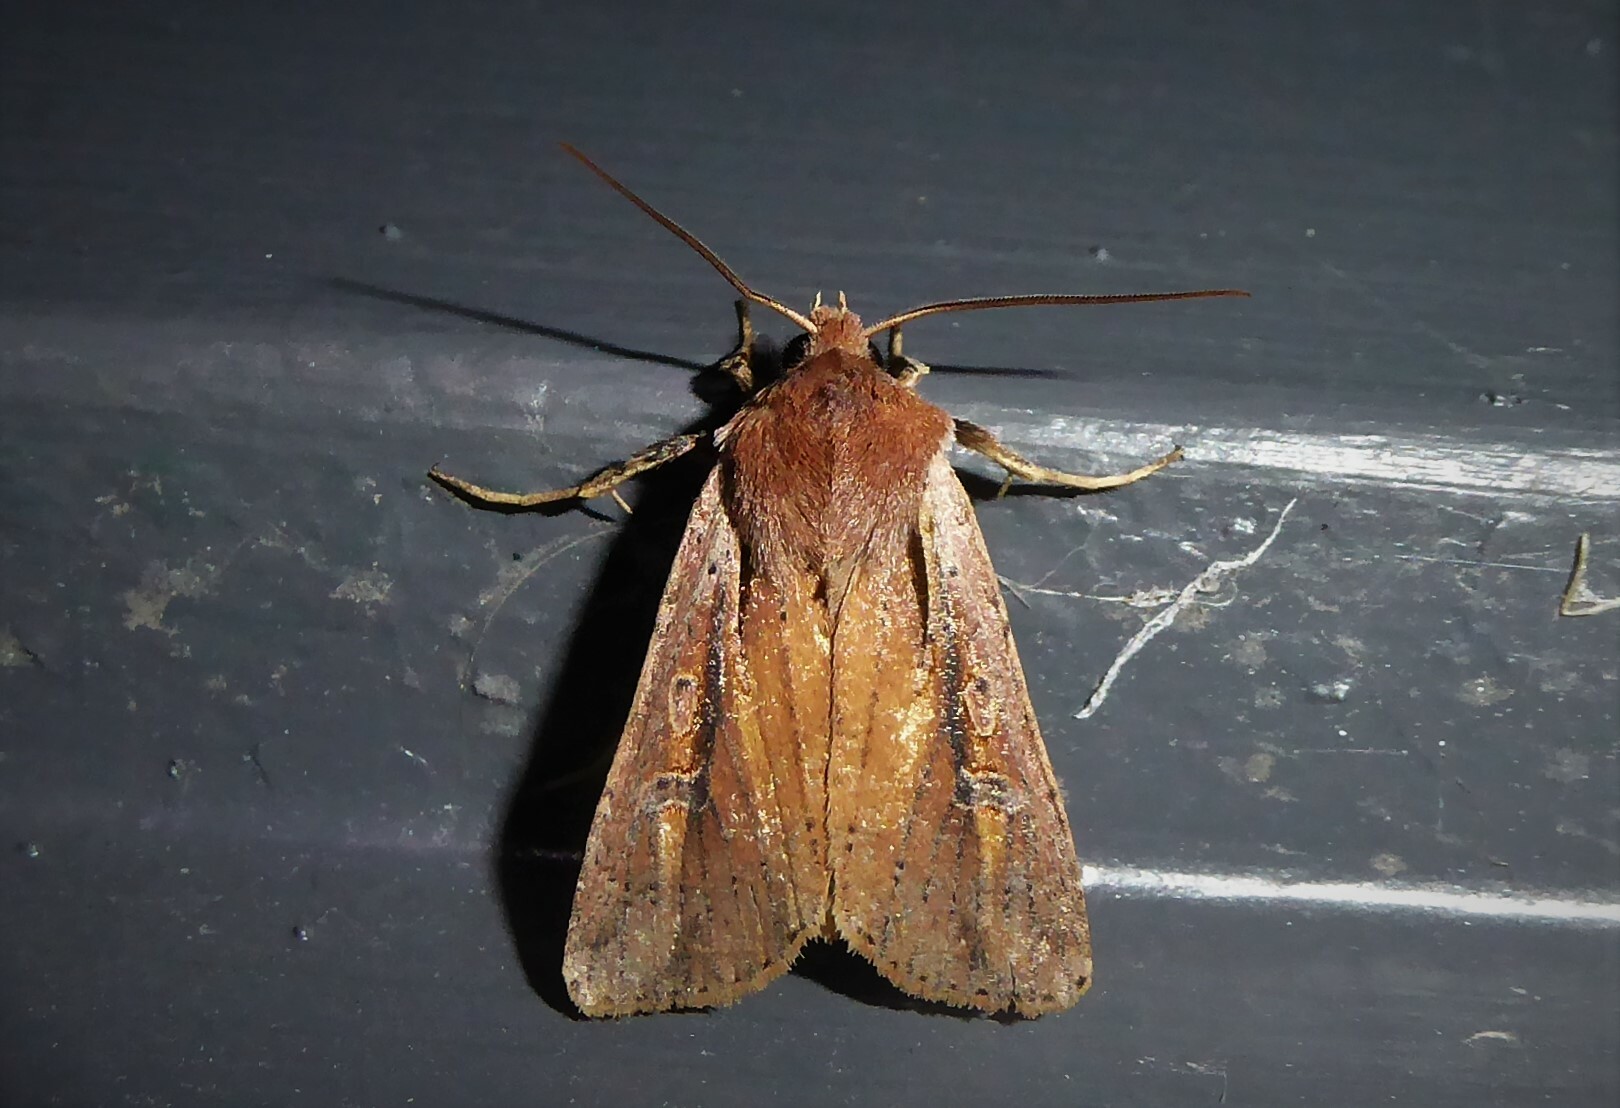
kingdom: Animalia
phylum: Arthropoda
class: Insecta
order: Lepidoptera
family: Noctuidae
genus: Ichneutica
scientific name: Ichneutica atristriga
